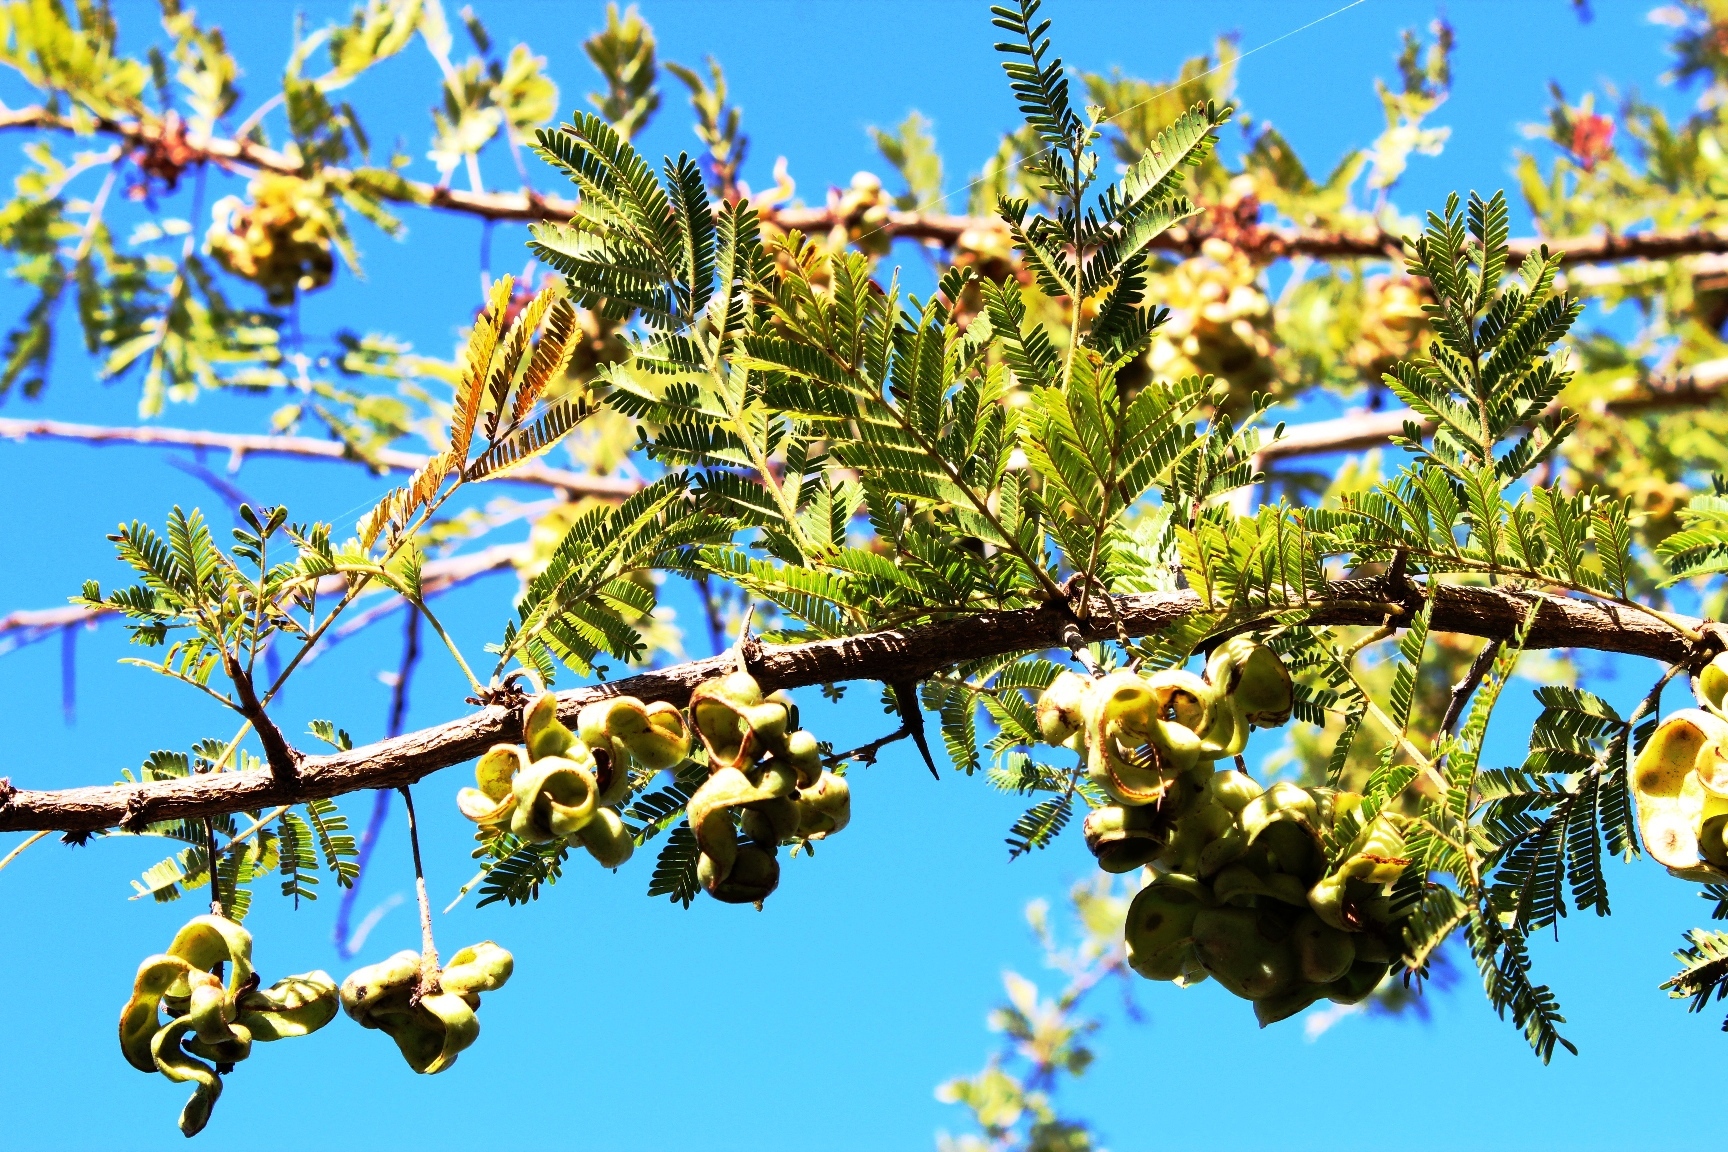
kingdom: Plantae
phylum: Tracheophyta
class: Magnoliopsida
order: Fabales
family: Fabaceae
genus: Dichrostachys
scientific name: Dichrostachys cinerea
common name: Sicklebush
